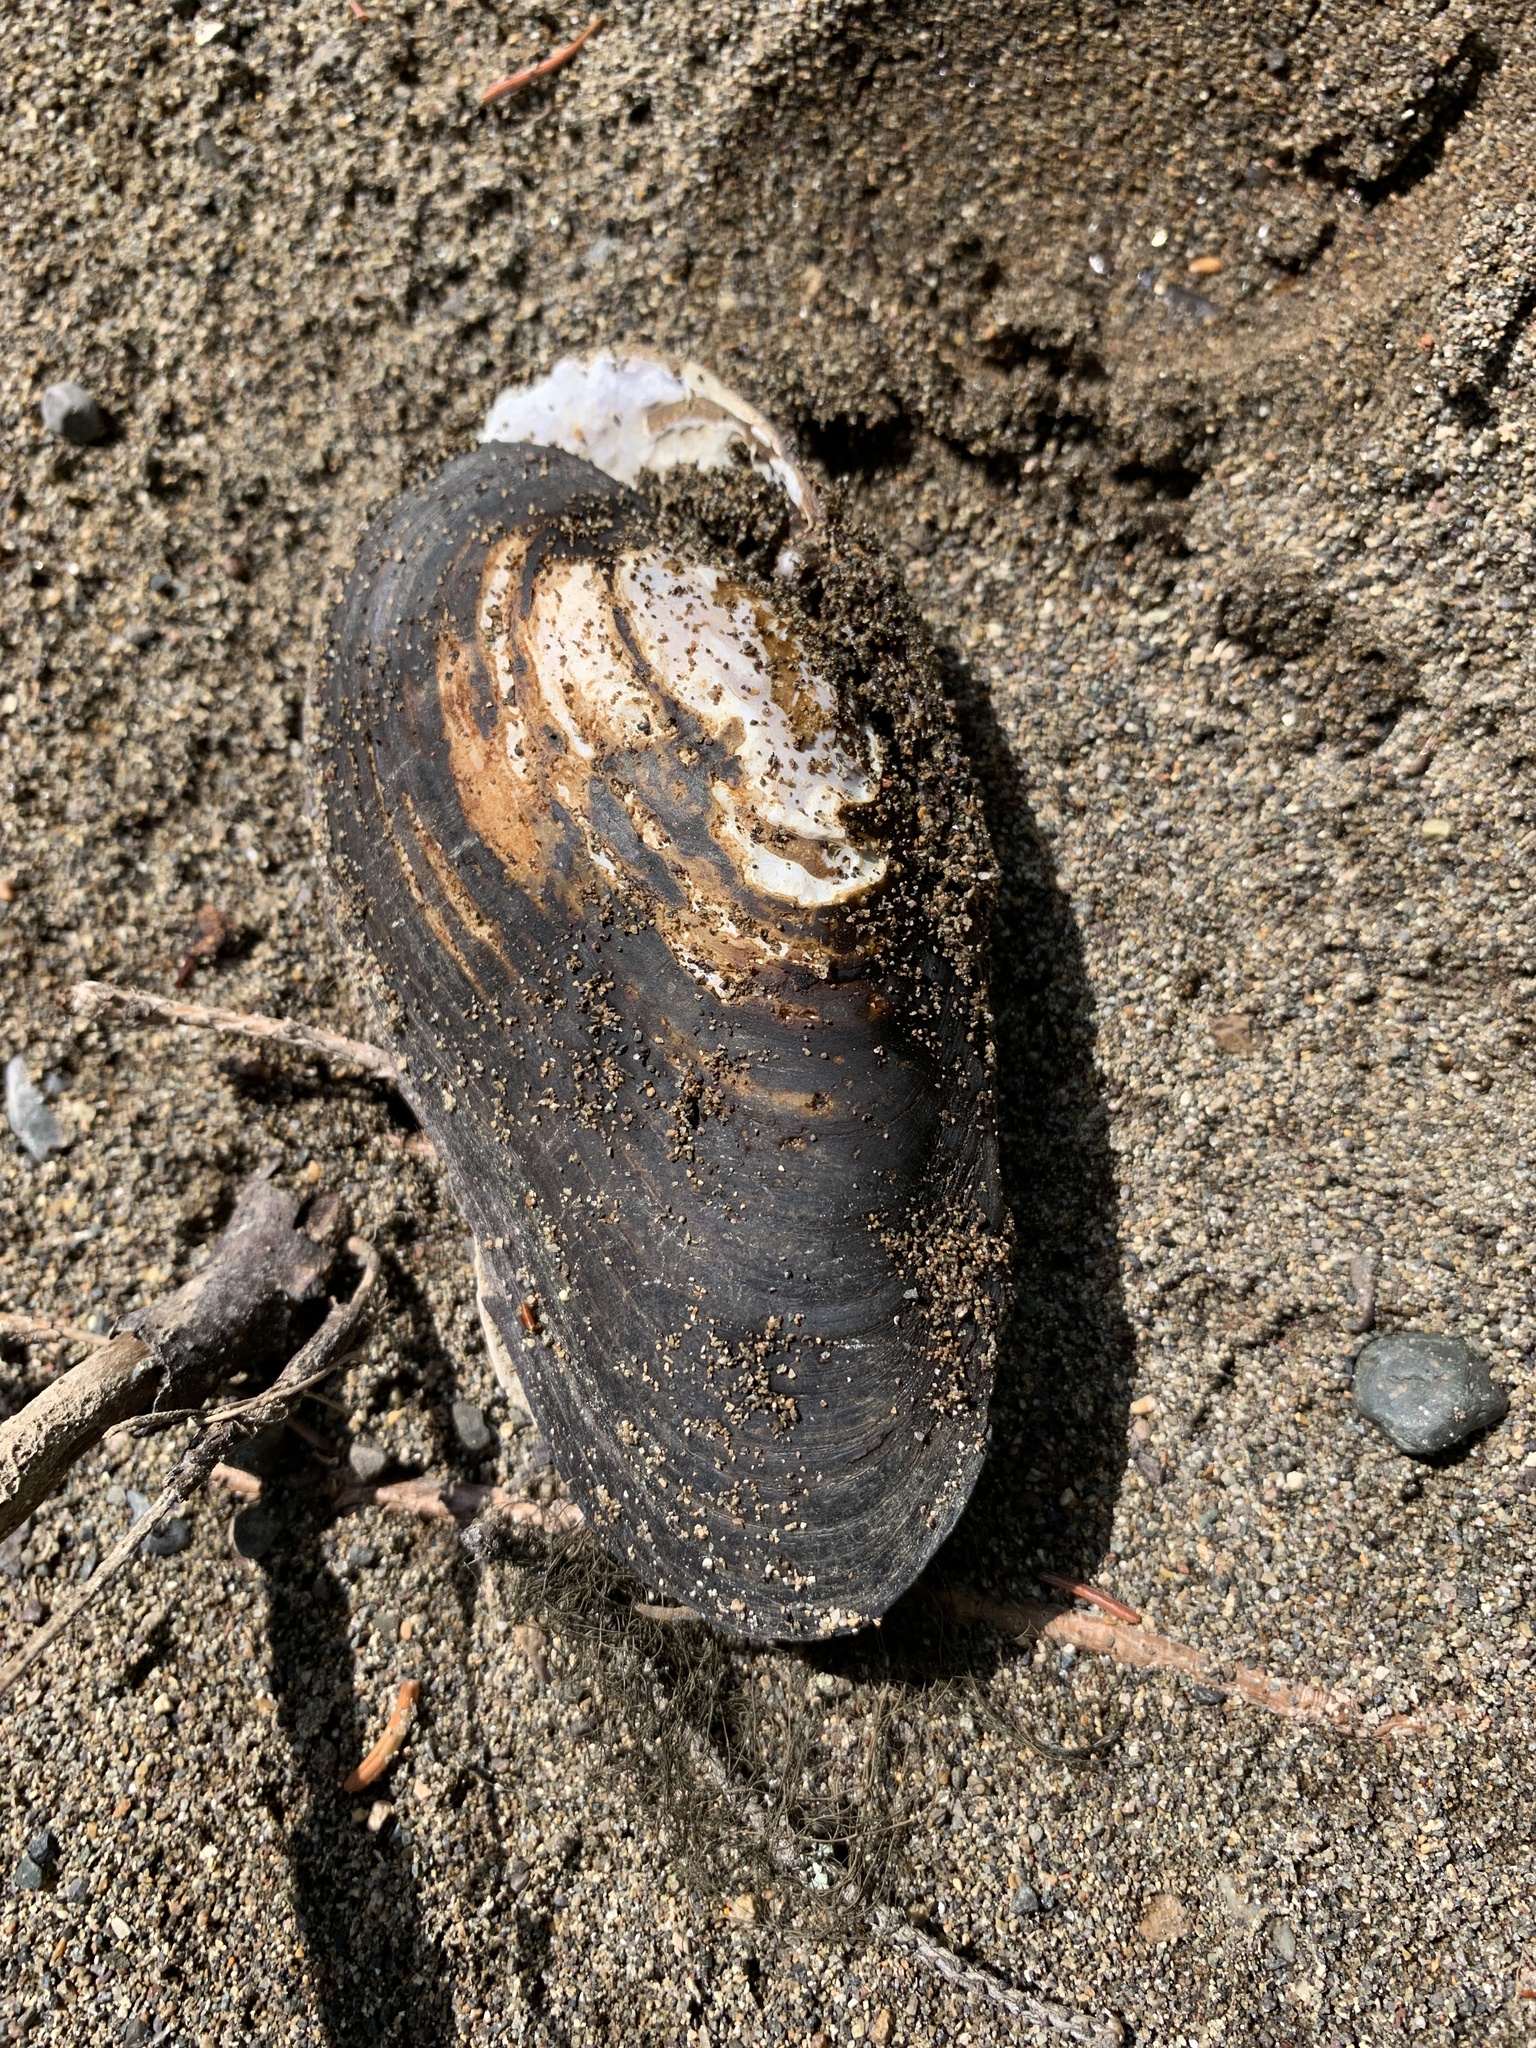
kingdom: Animalia
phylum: Mollusca
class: Bivalvia
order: Unionida
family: Margaritiferidae
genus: Margaritifera
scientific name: Margaritifera falcata
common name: Western pearlshell
